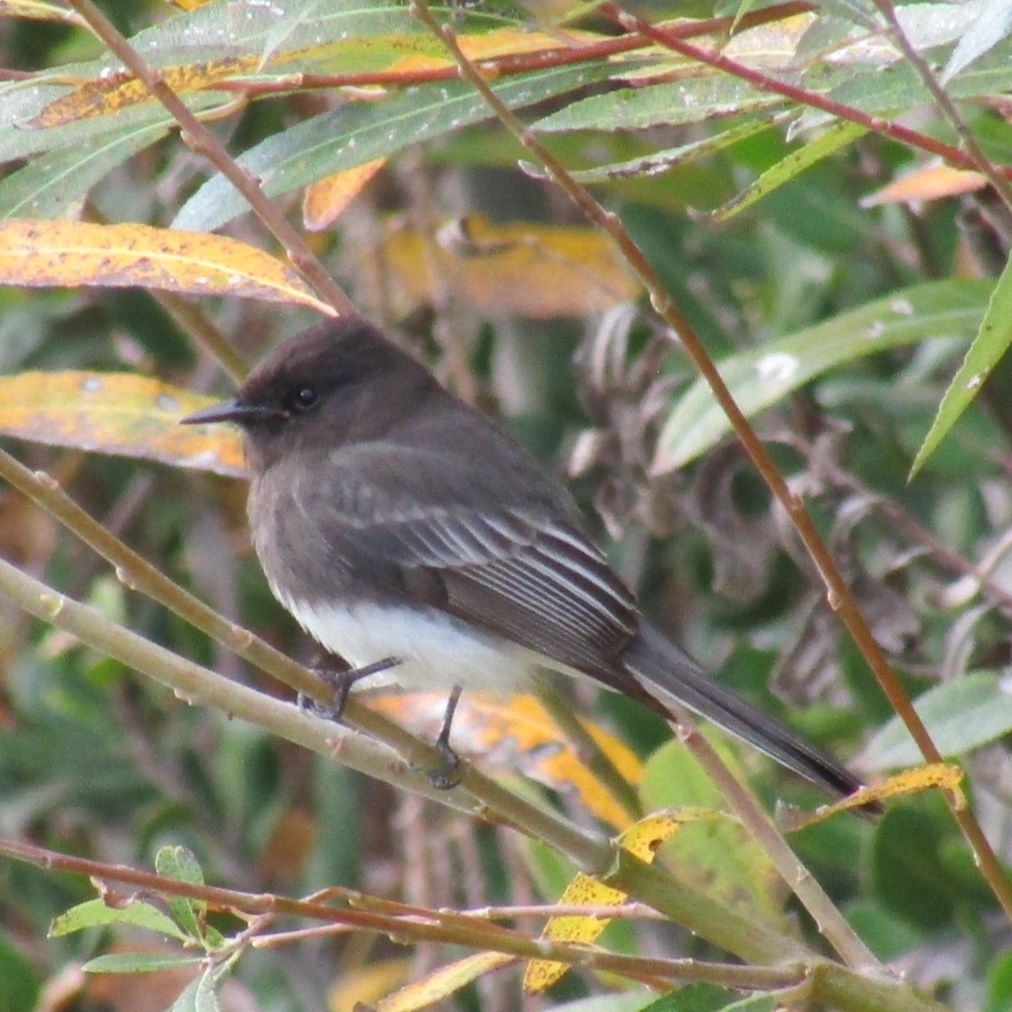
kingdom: Animalia
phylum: Chordata
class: Aves
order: Passeriformes
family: Tyrannidae
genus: Sayornis
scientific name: Sayornis nigricans
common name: Black phoebe
